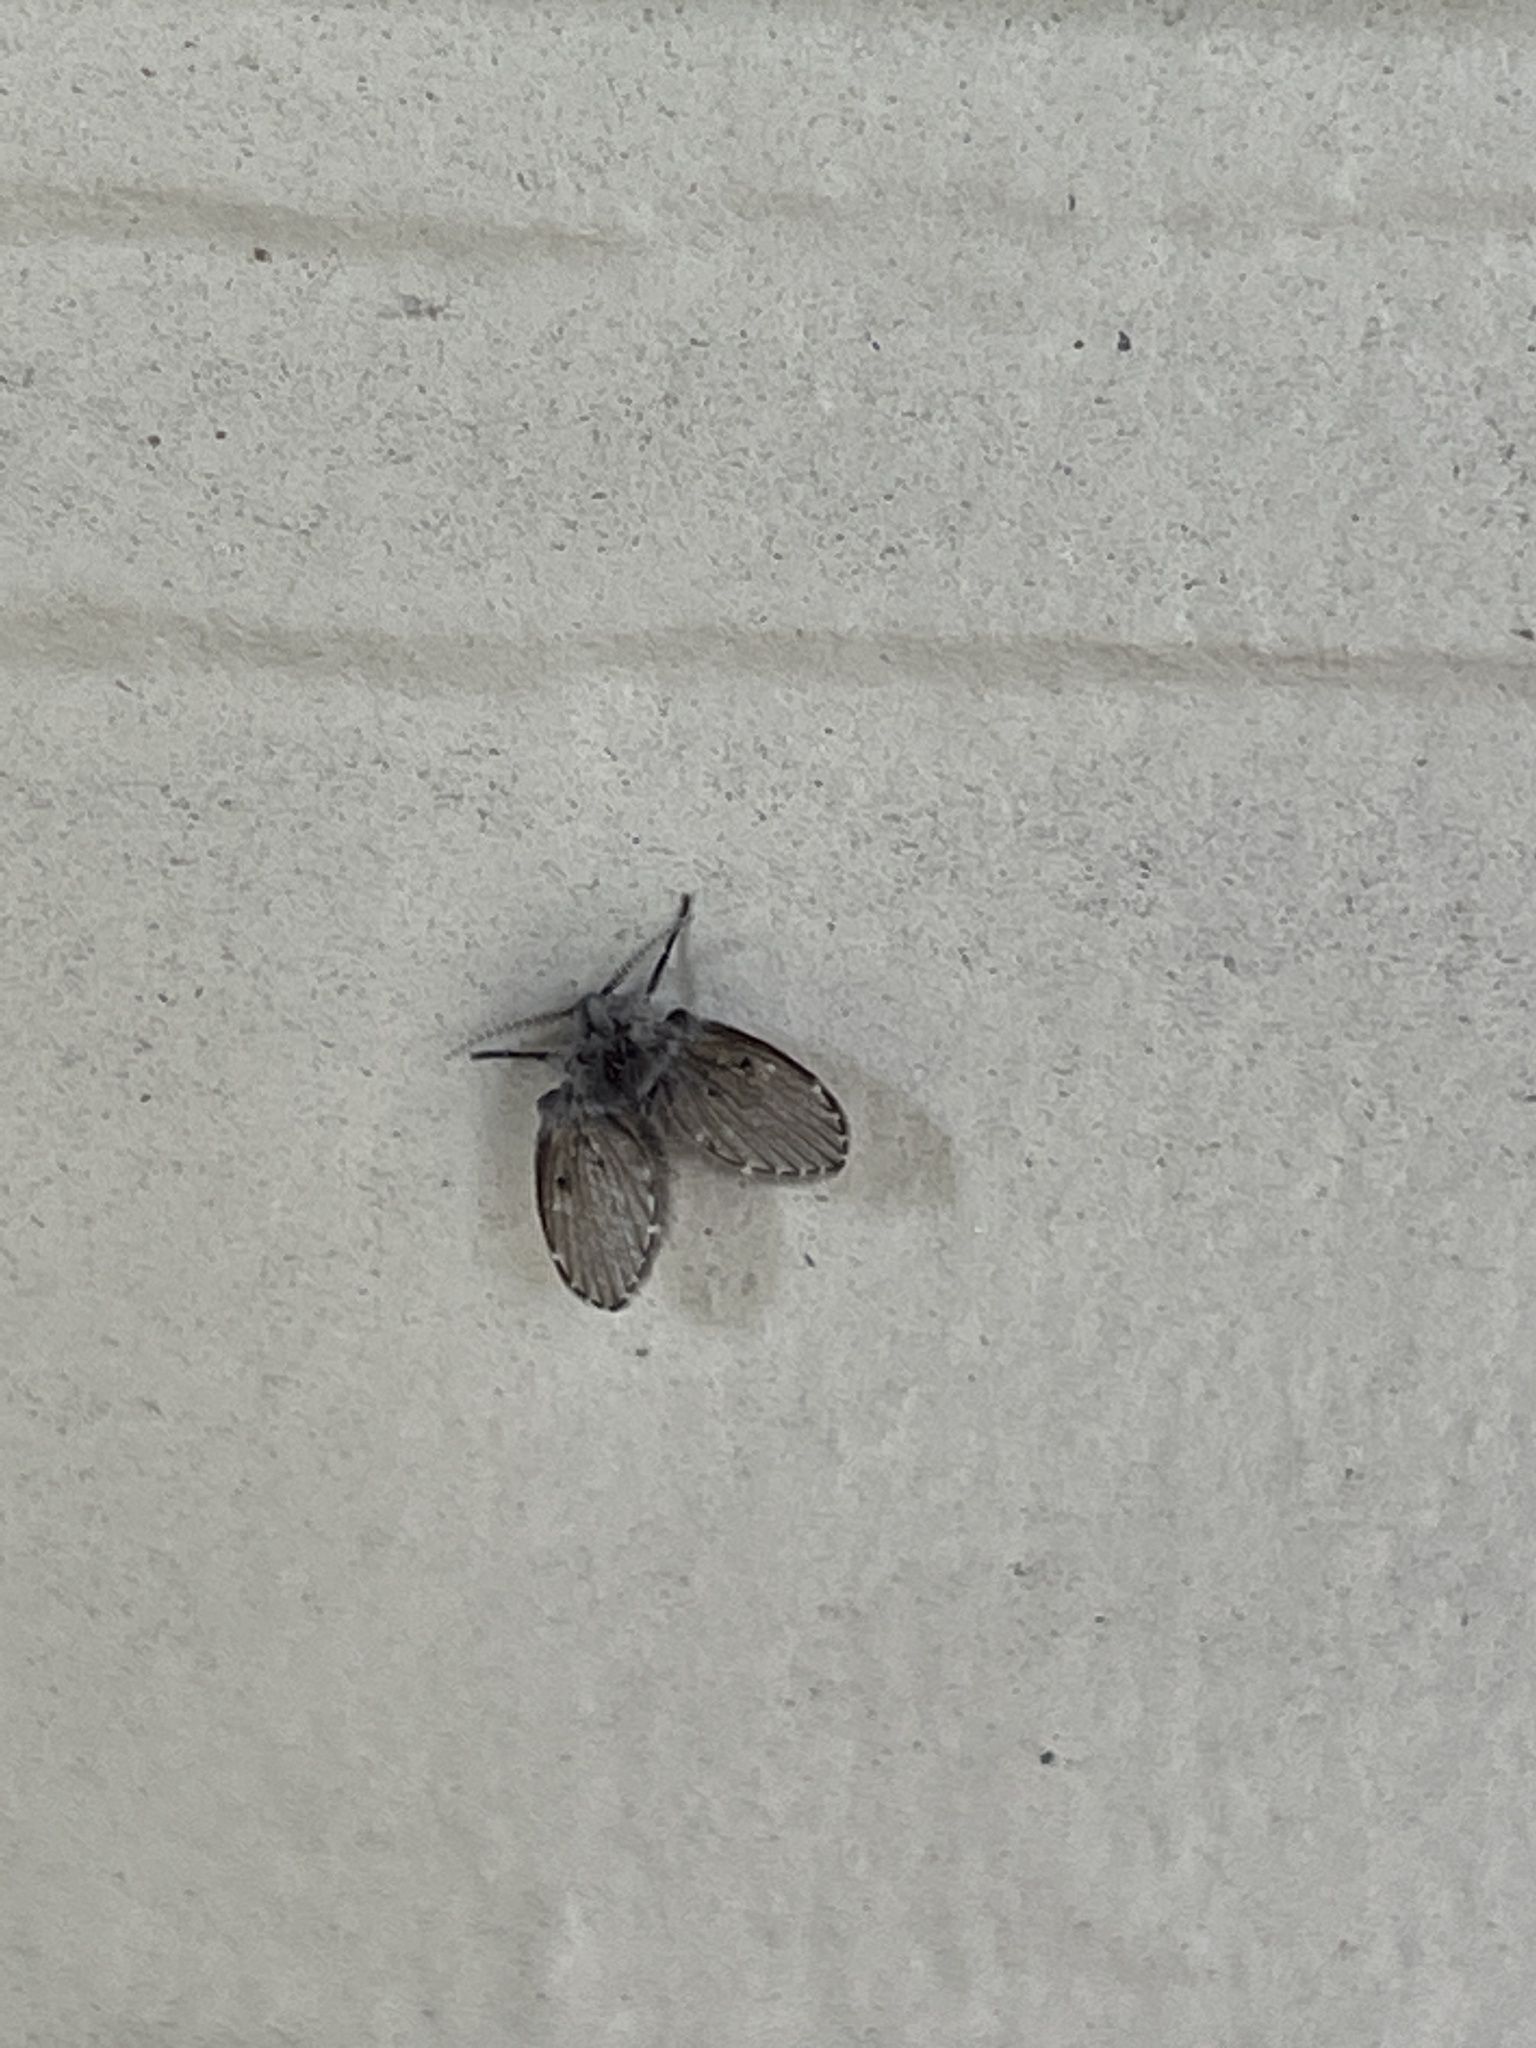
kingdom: Animalia
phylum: Arthropoda
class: Insecta
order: Diptera
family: Psychodidae
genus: Clogmia
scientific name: Clogmia albipunctatus
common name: White-spotted moth fly
